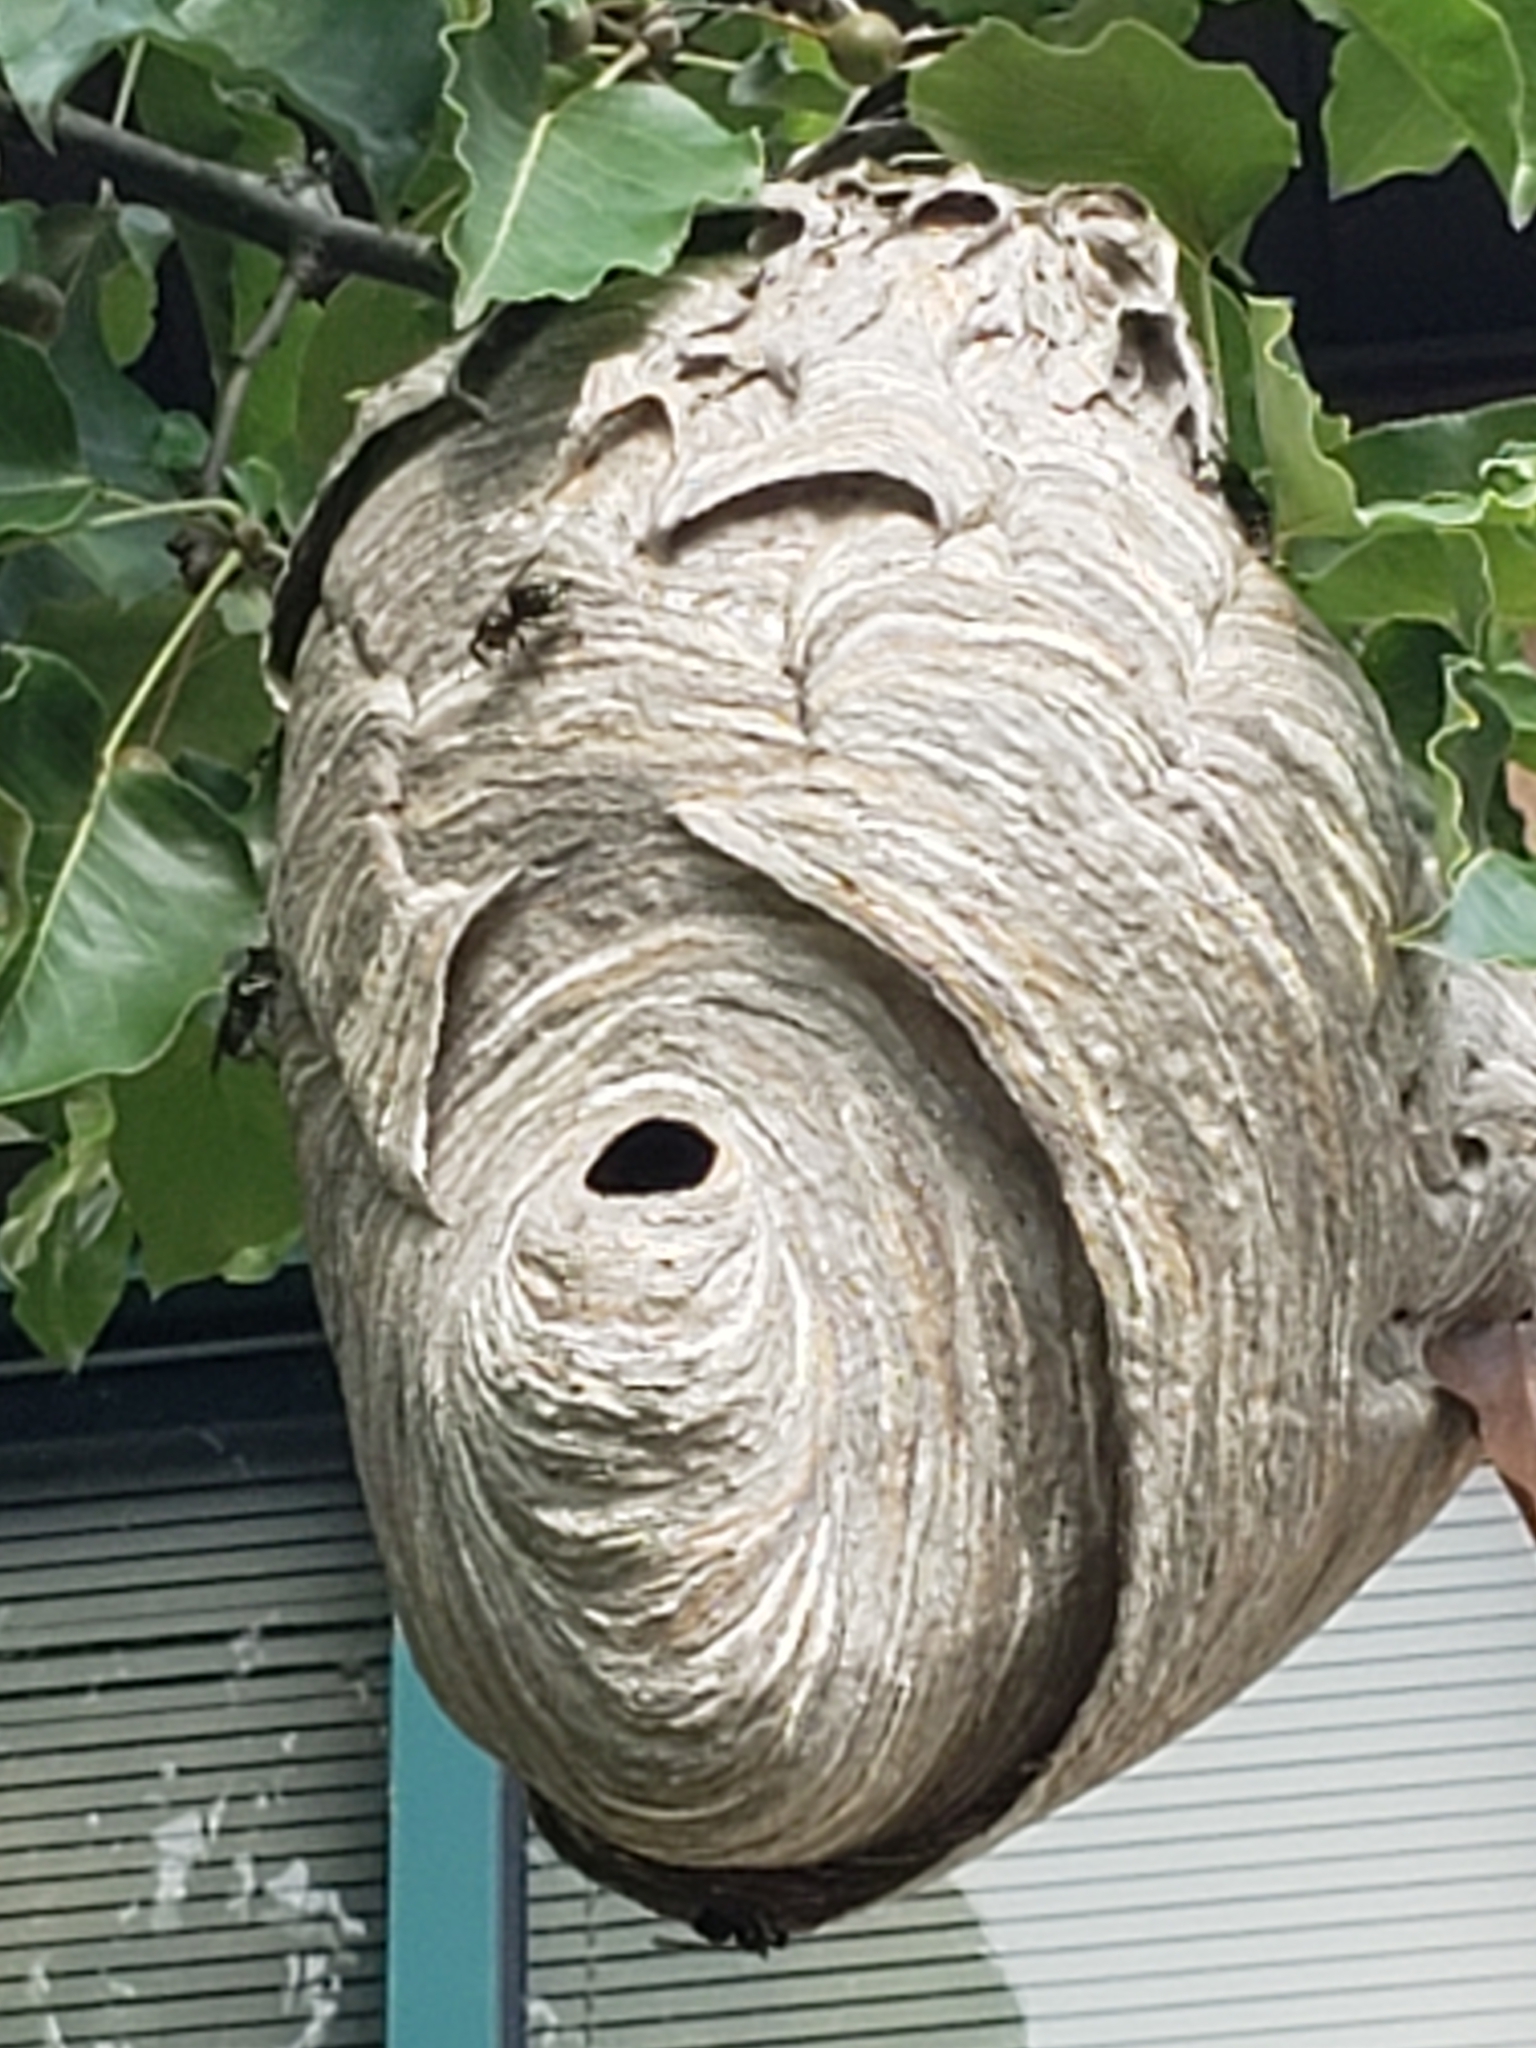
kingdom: Animalia
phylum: Arthropoda
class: Insecta
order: Hymenoptera
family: Vespidae
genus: Dolichovespula
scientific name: Dolichovespula maculata
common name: Bald-faced hornet
